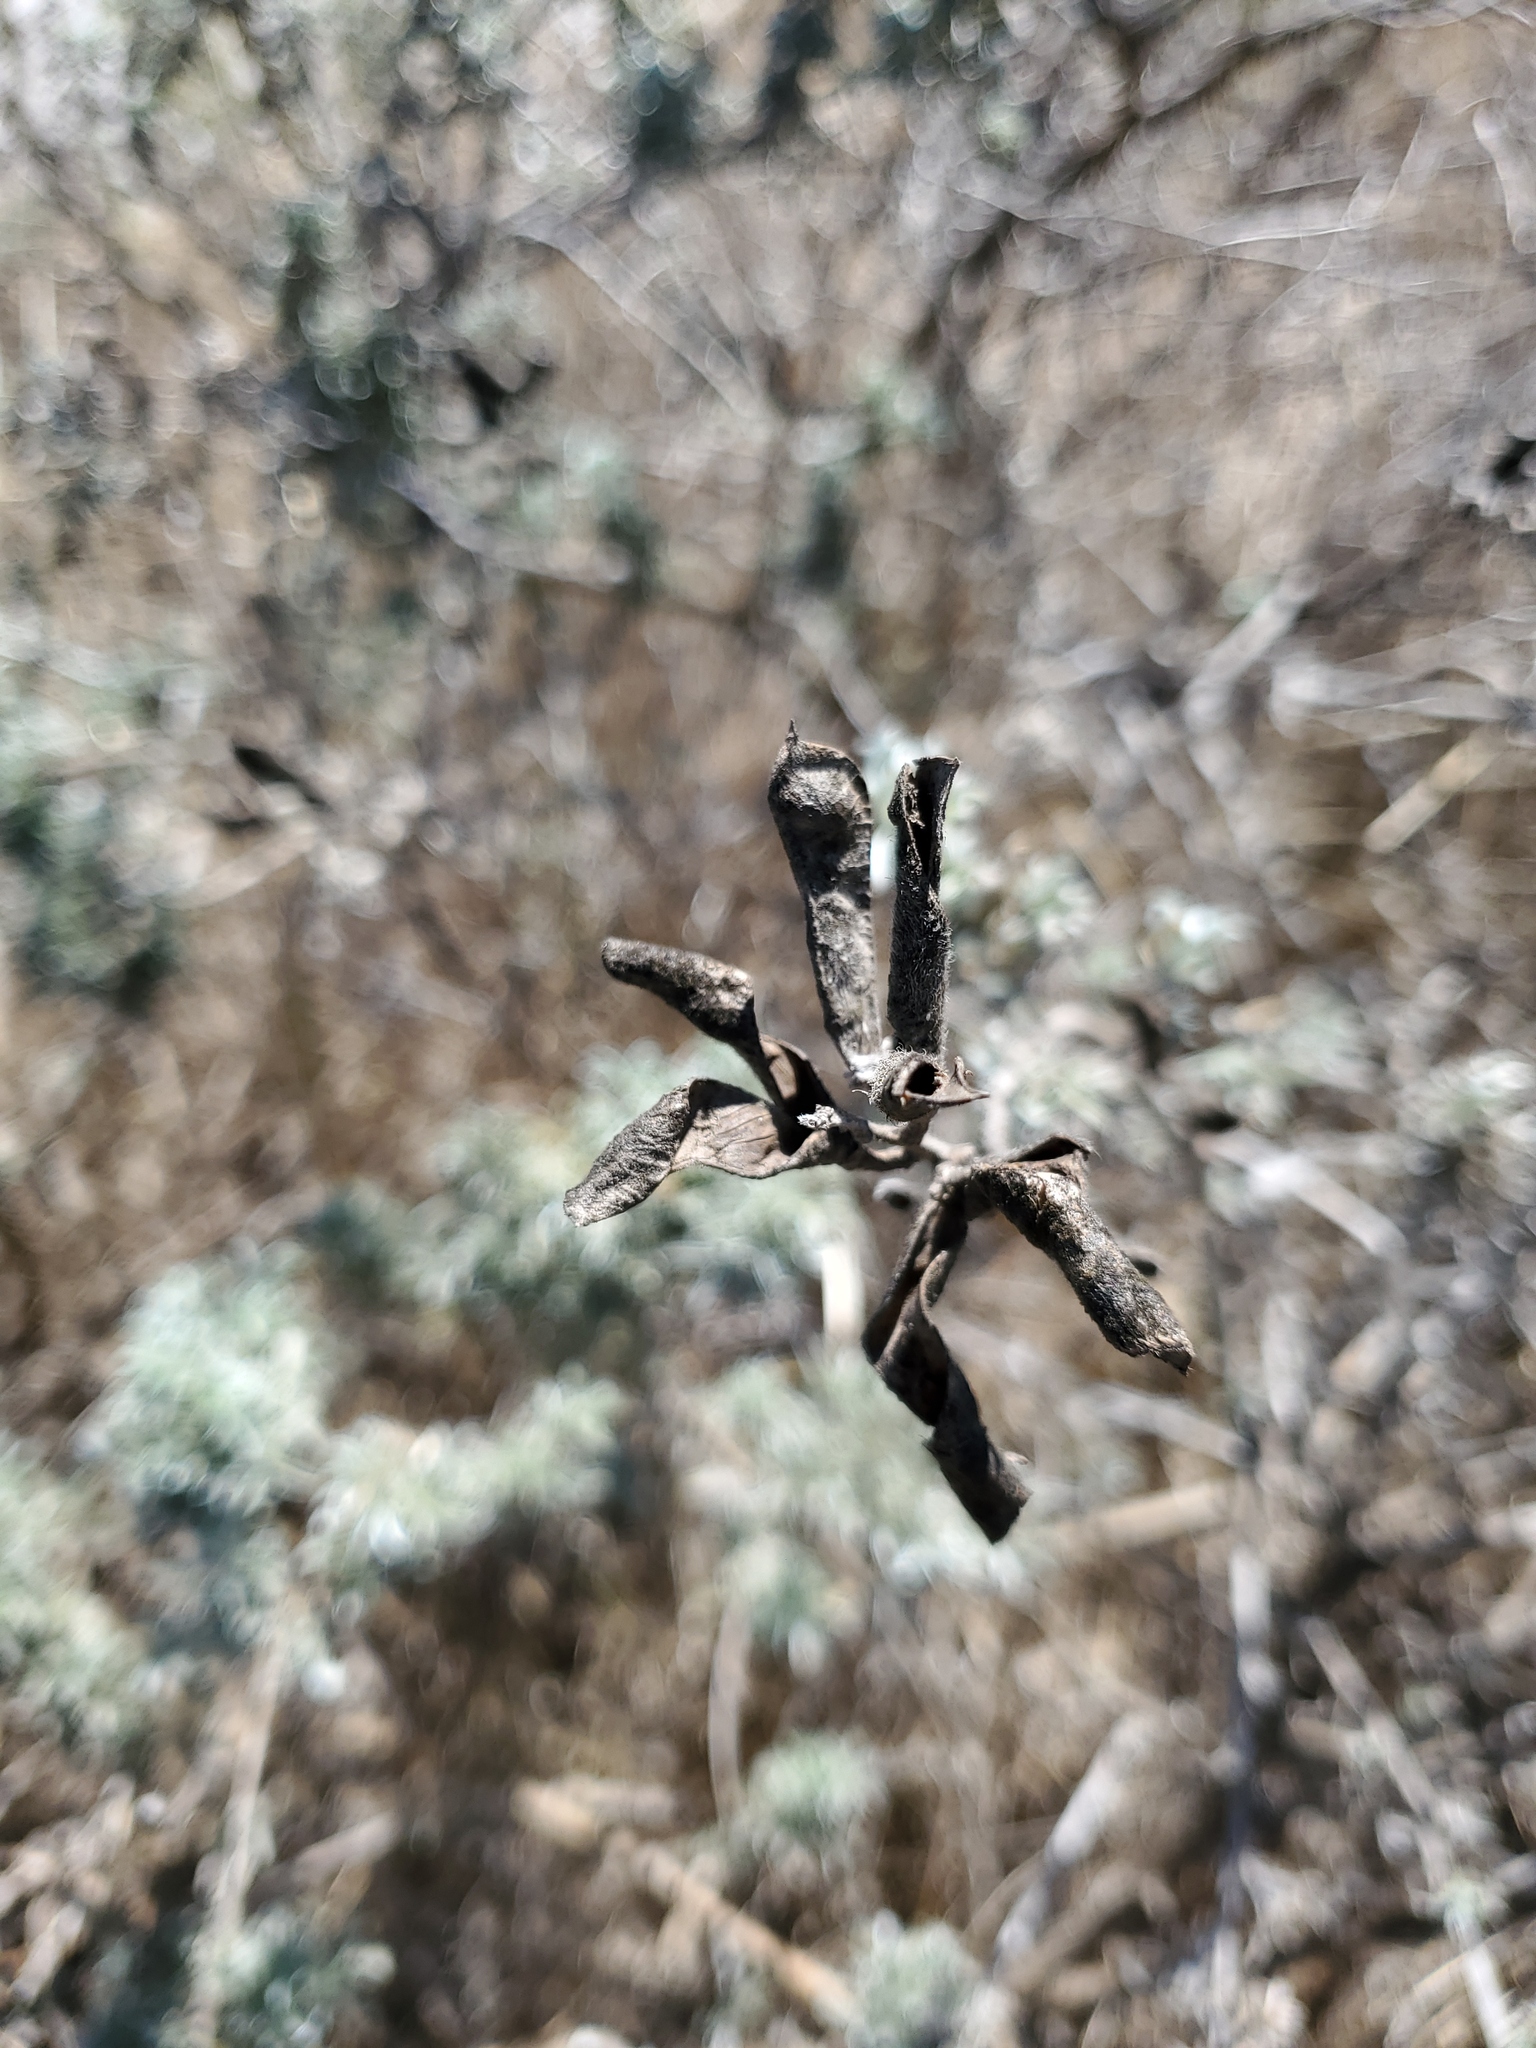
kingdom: Plantae
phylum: Tracheophyta
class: Magnoliopsida
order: Fabales
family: Fabaceae
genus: Lupinus
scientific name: Lupinus chamissonis
